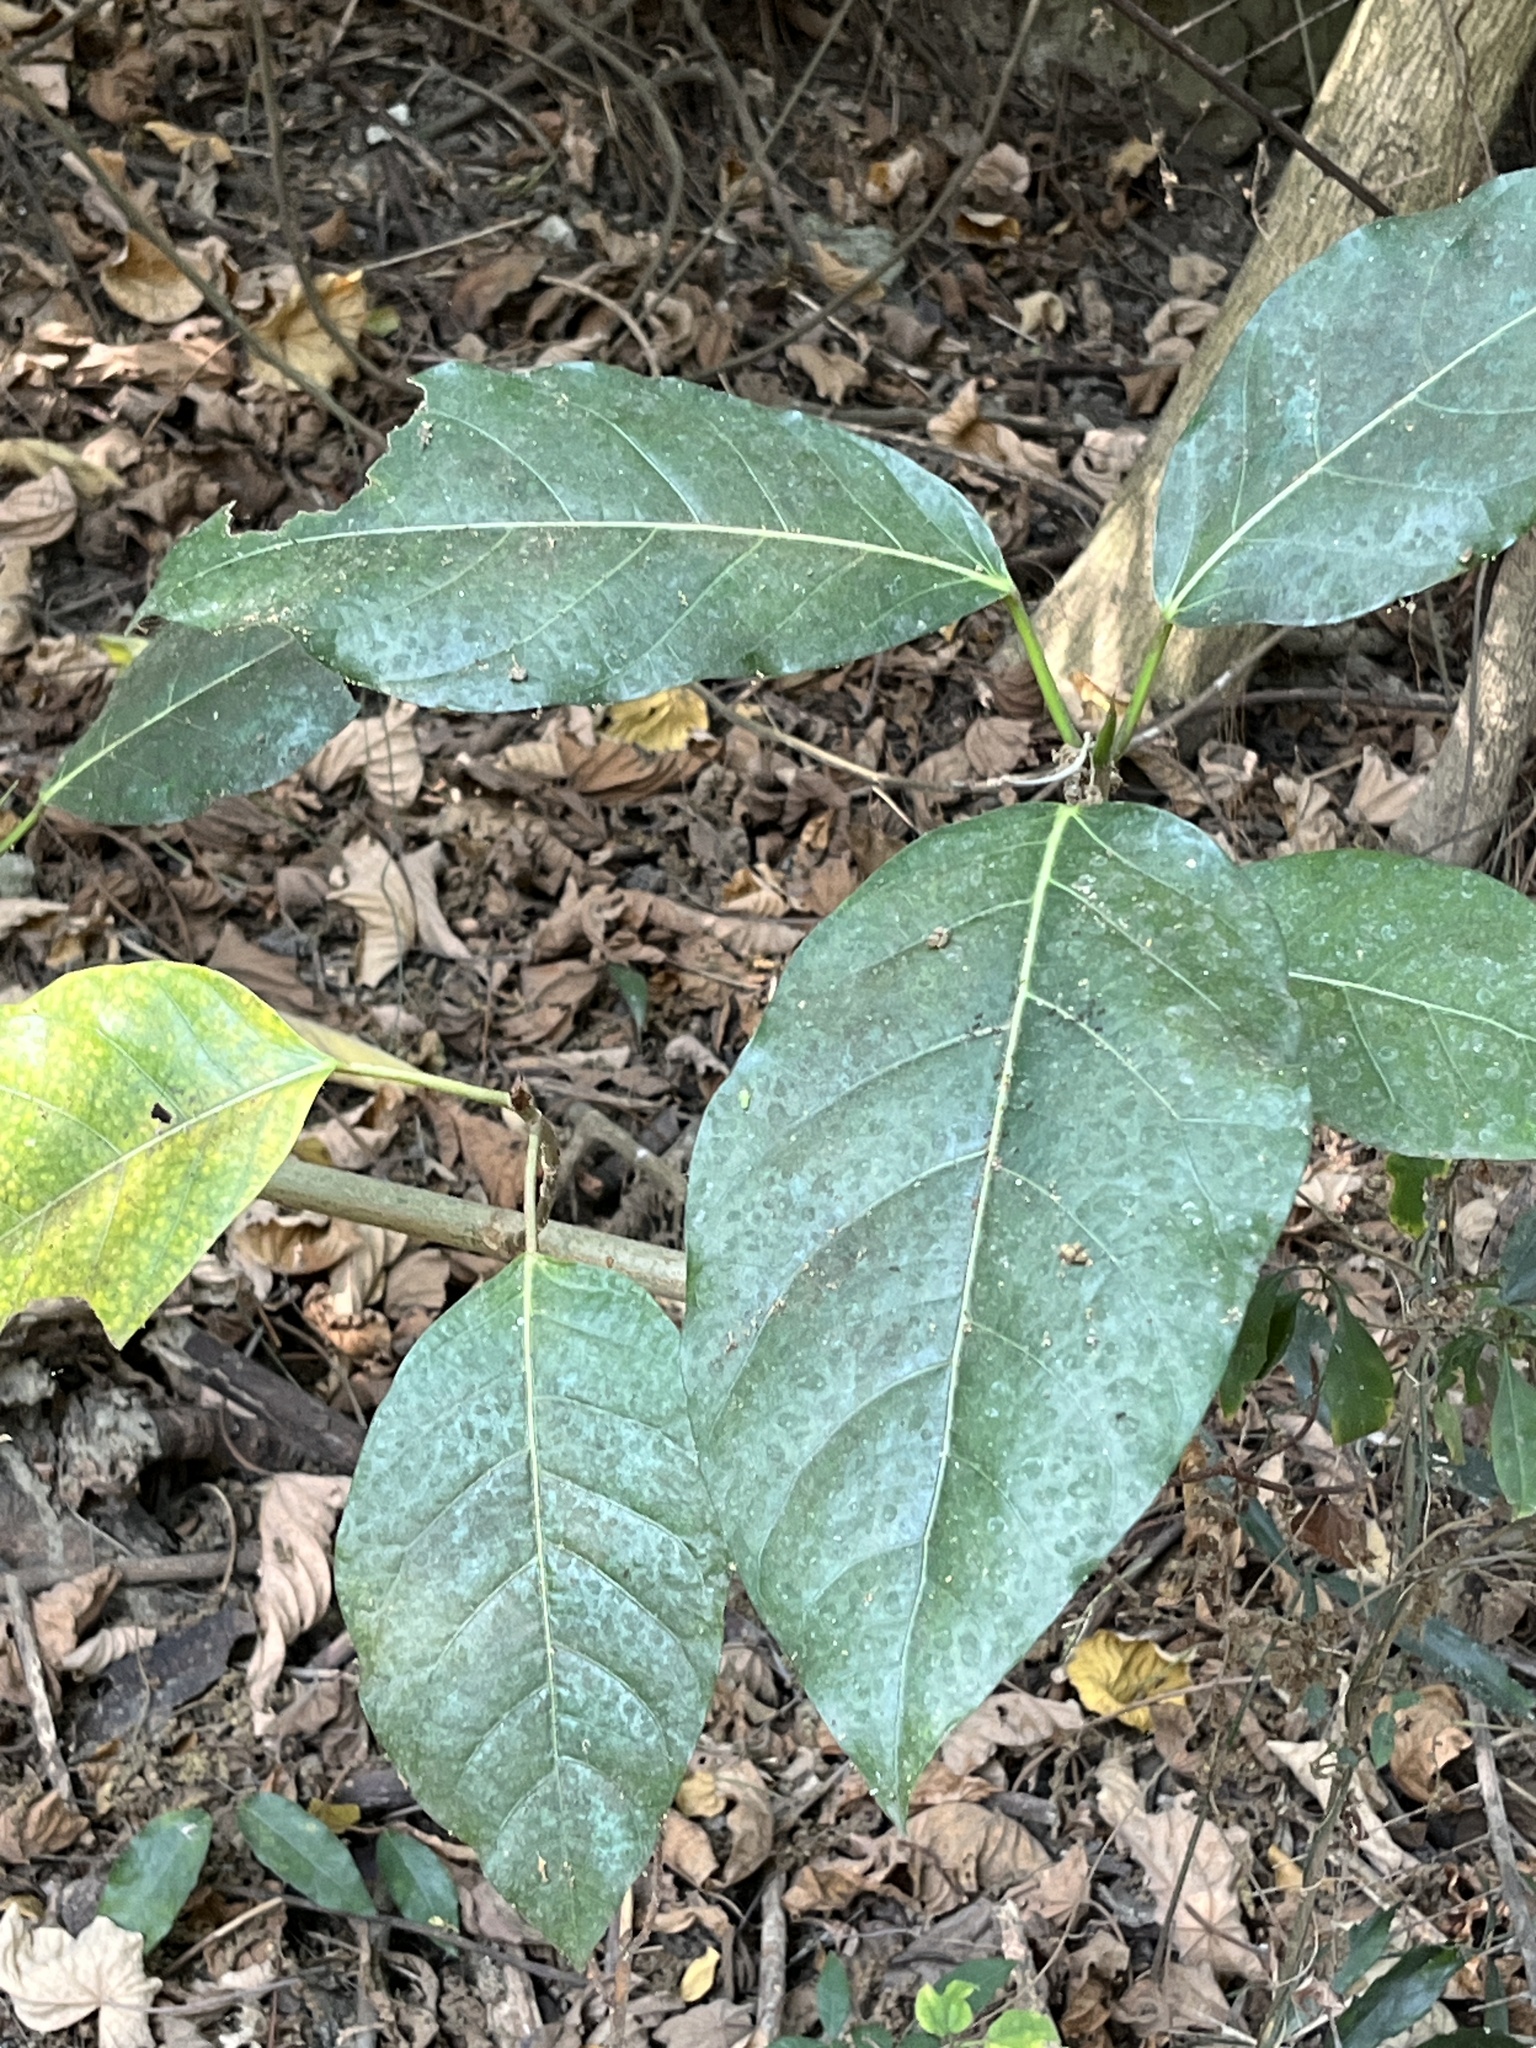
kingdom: Plantae
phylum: Tracheophyta
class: Magnoliopsida
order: Rosales
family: Moraceae
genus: Ficus
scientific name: Ficus septica
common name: Septic fig
